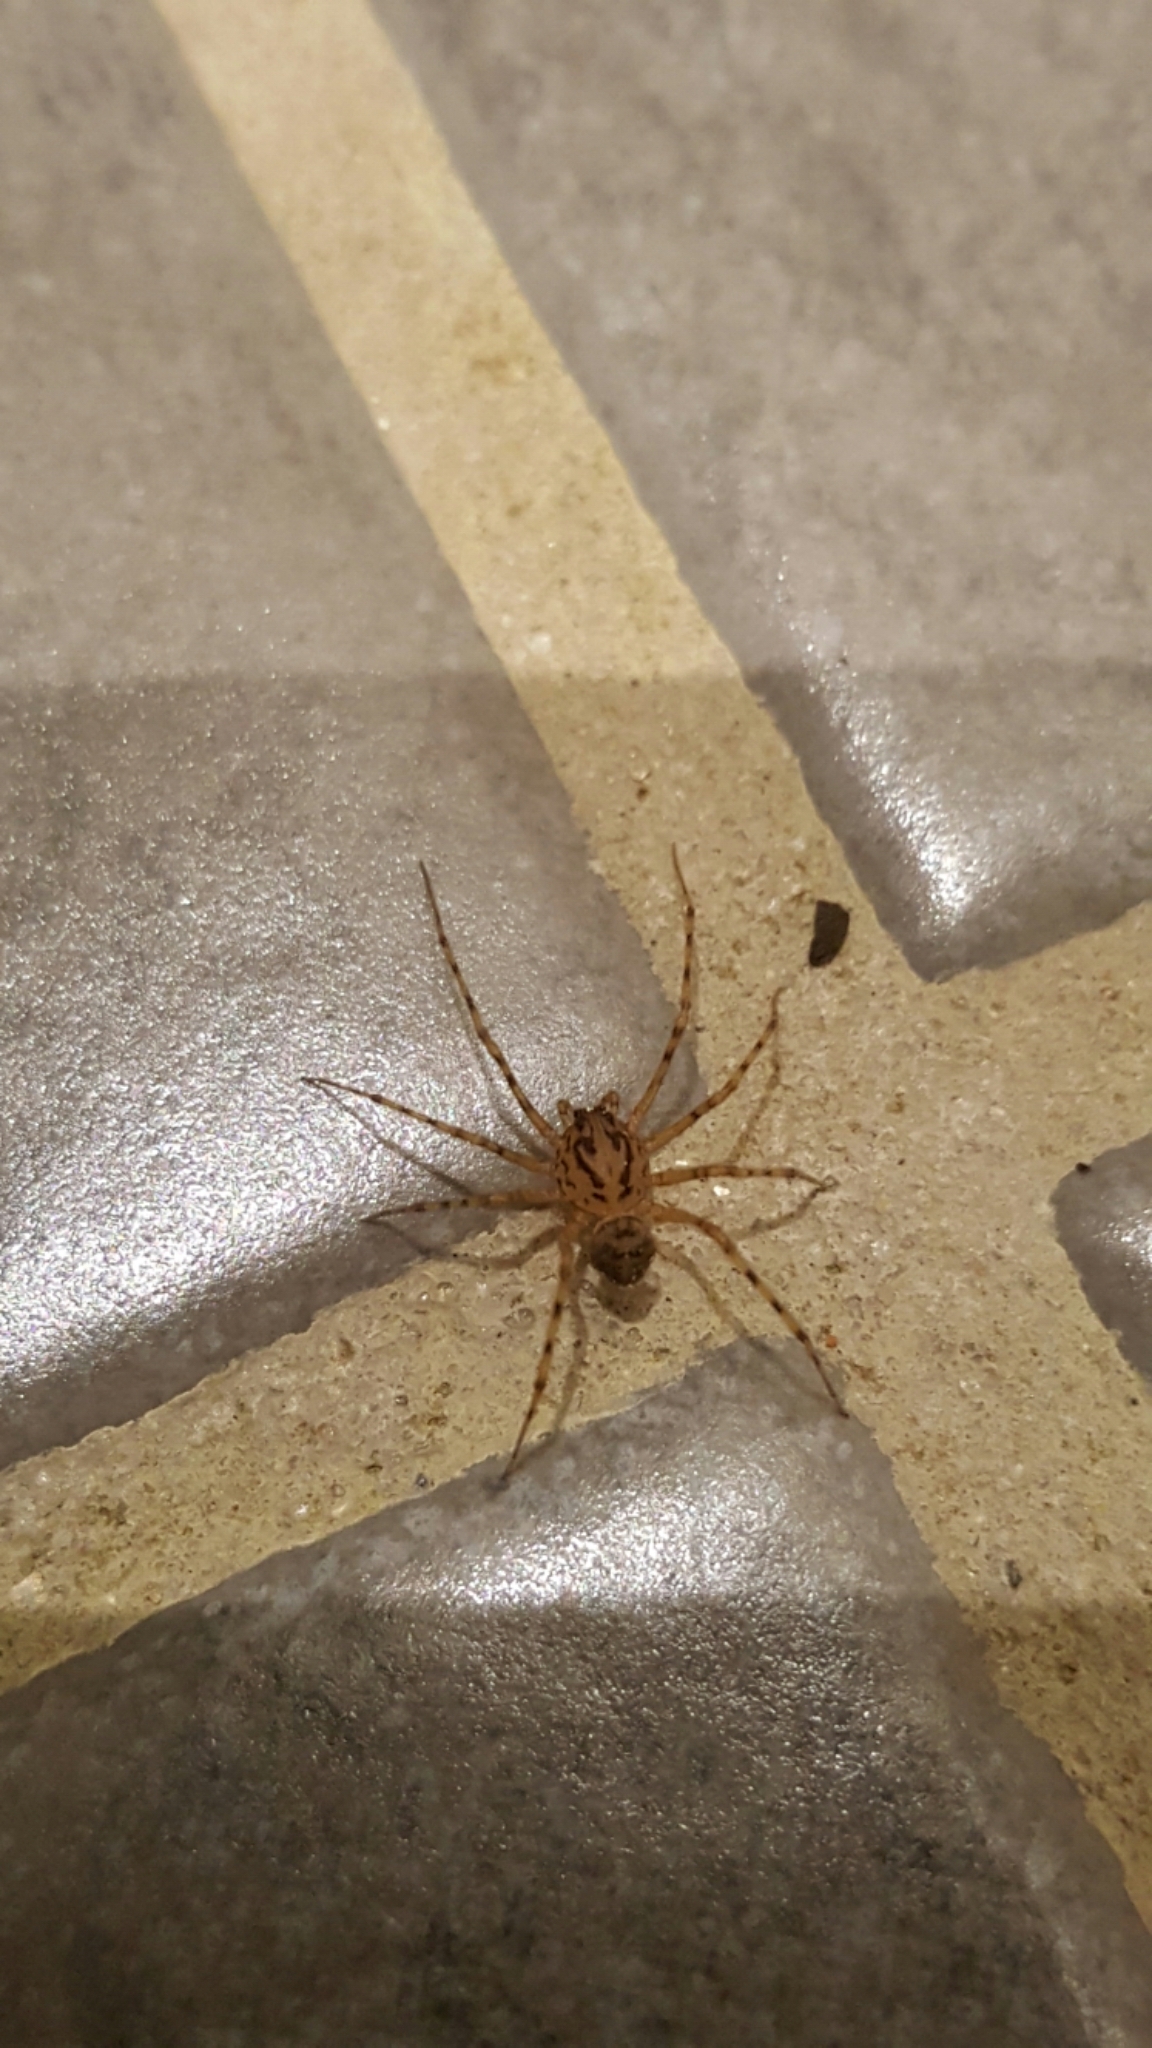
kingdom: Animalia
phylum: Arthropoda
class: Arachnida
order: Araneae
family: Scytodidae
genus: Scytodes
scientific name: Scytodes thoracica
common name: Spitting spider
